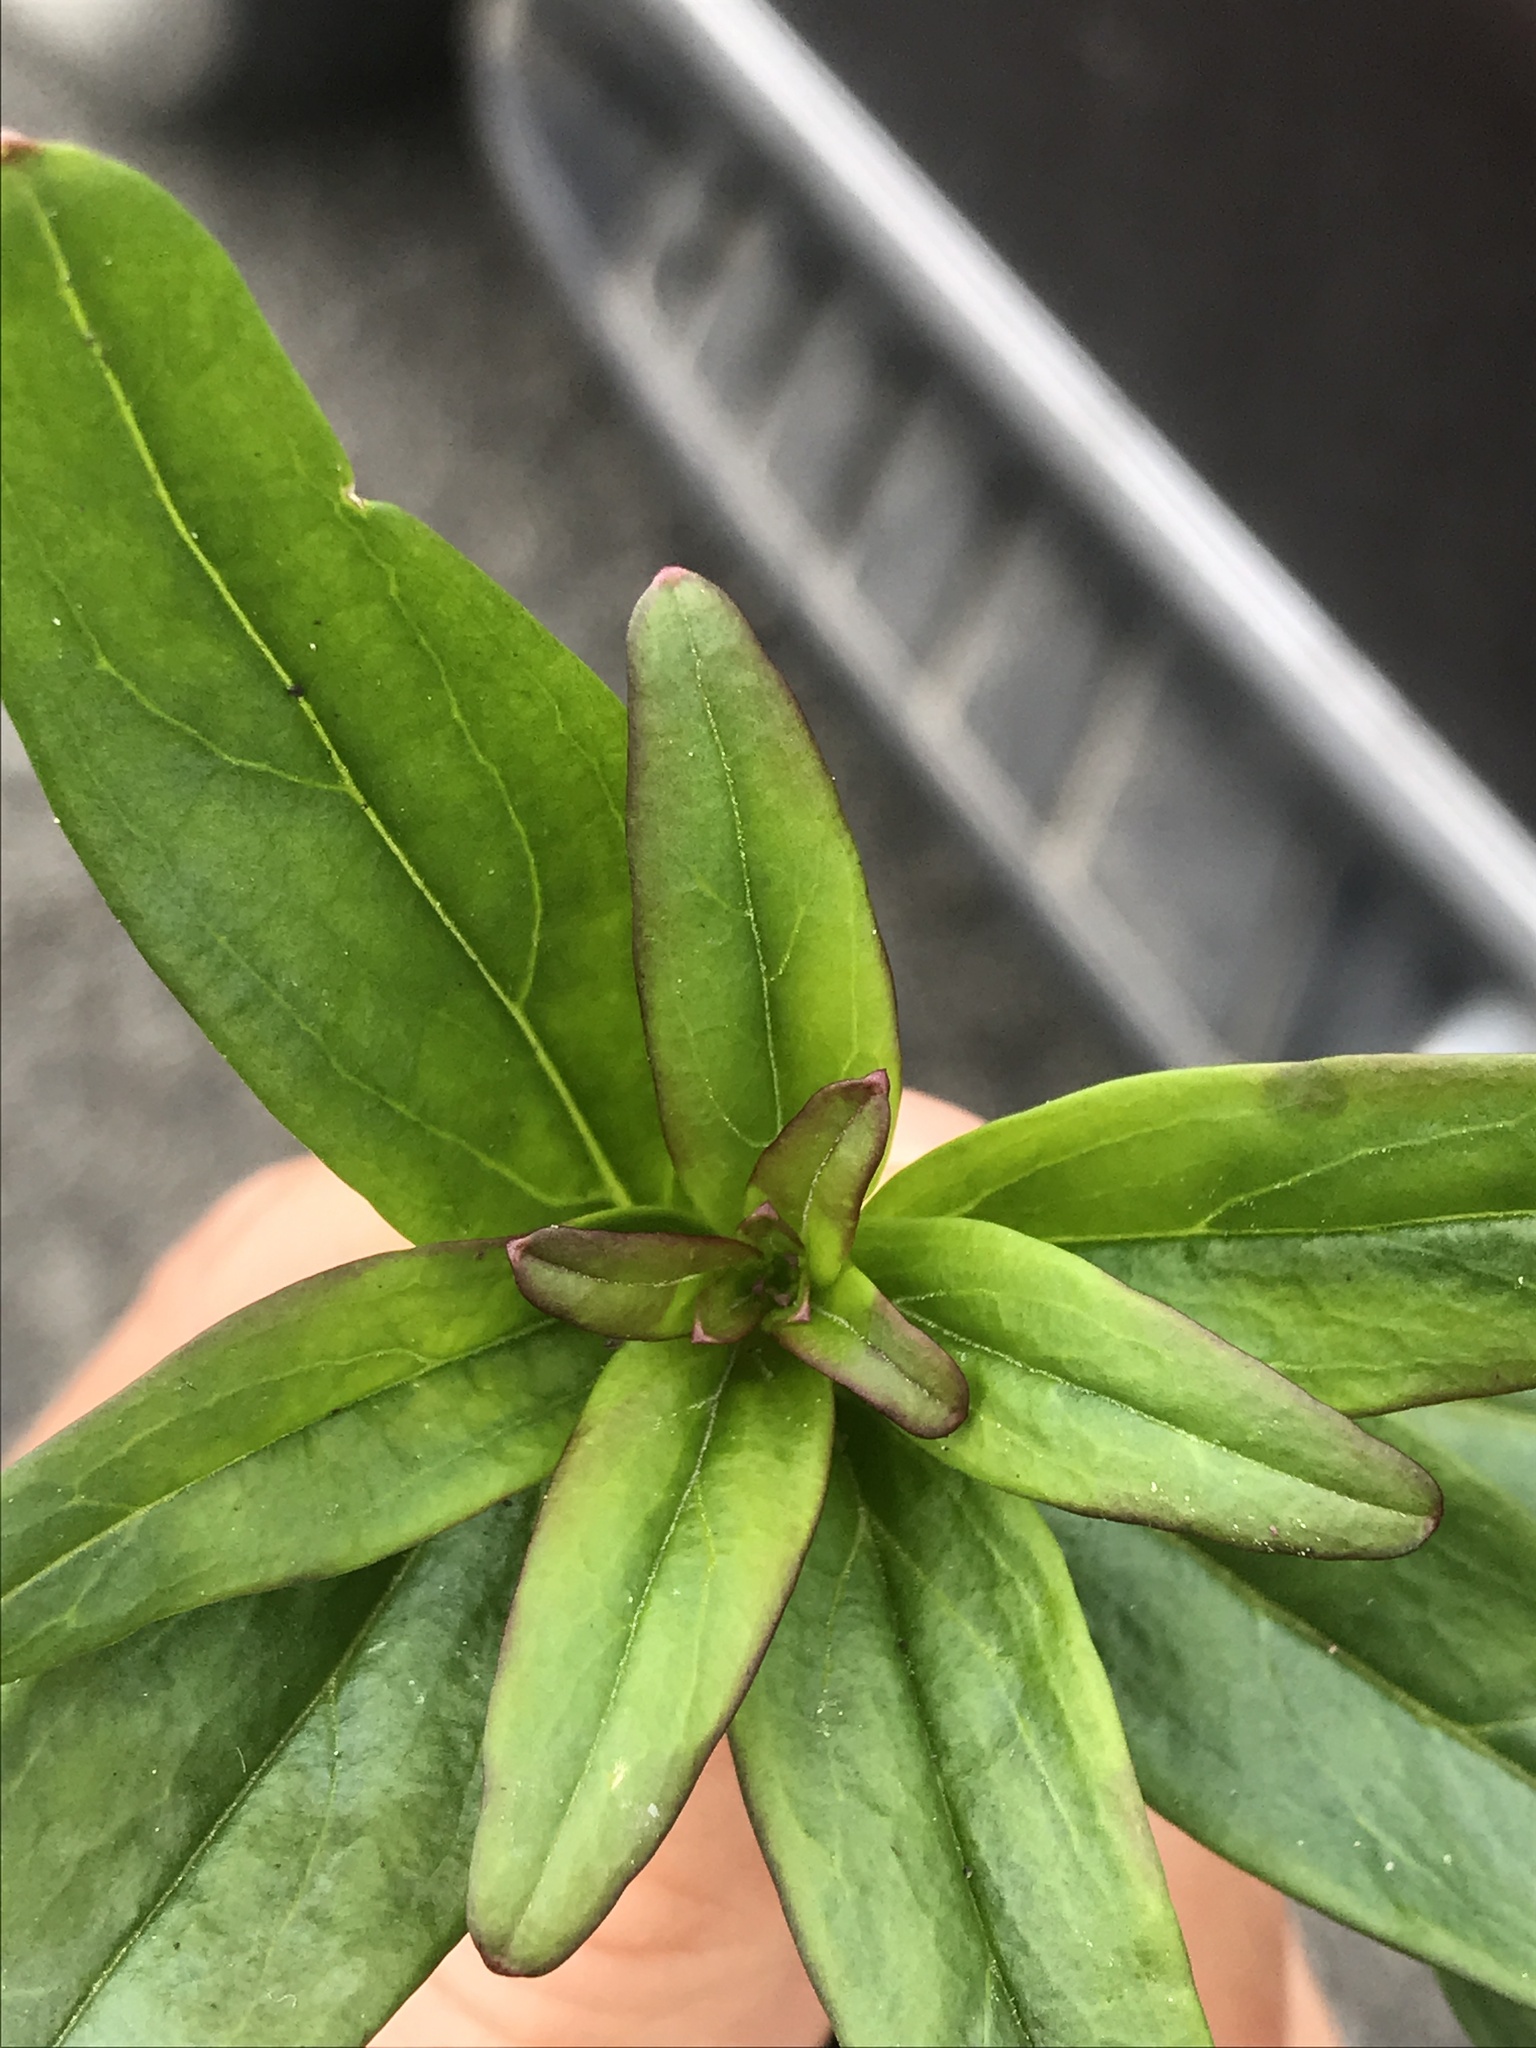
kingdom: Plantae
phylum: Tracheophyta
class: Magnoliopsida
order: Lamiales
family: Plantaginaceae
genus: Antirrhinum
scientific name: Antirrhinum majus
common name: Snapdragon
